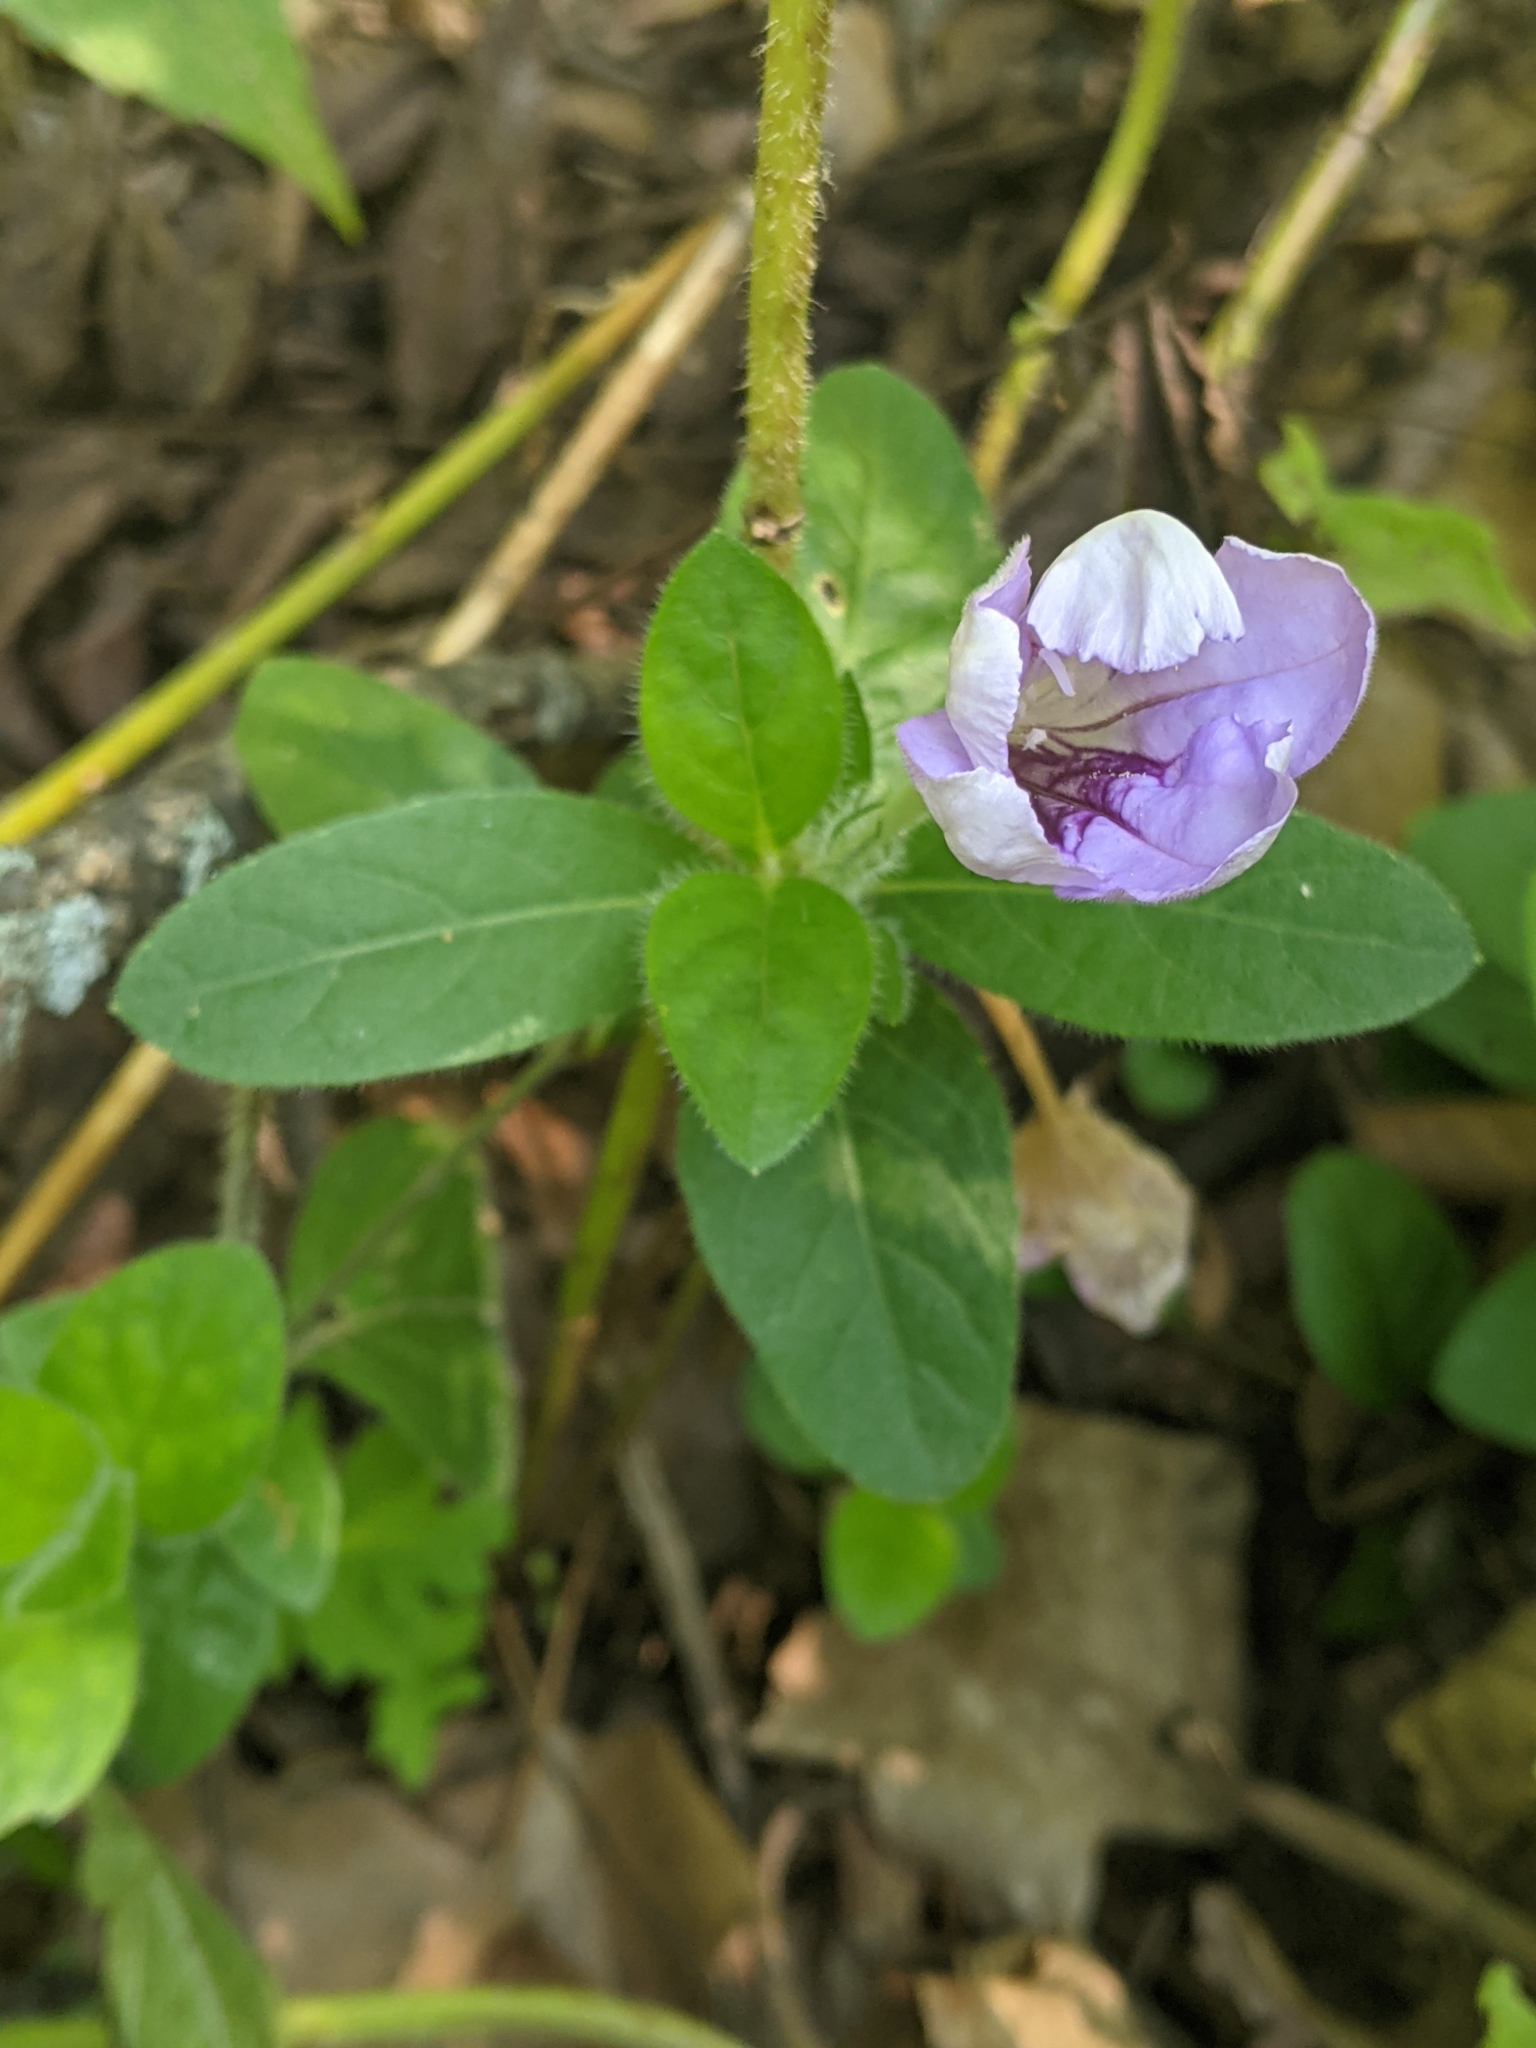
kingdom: Plantae
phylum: Tracheophyta
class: Magnoliopsida
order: Lamiales
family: Acanthaceae
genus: Ruellia
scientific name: Ruellia humilis
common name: Fringe-leaf ruellia
